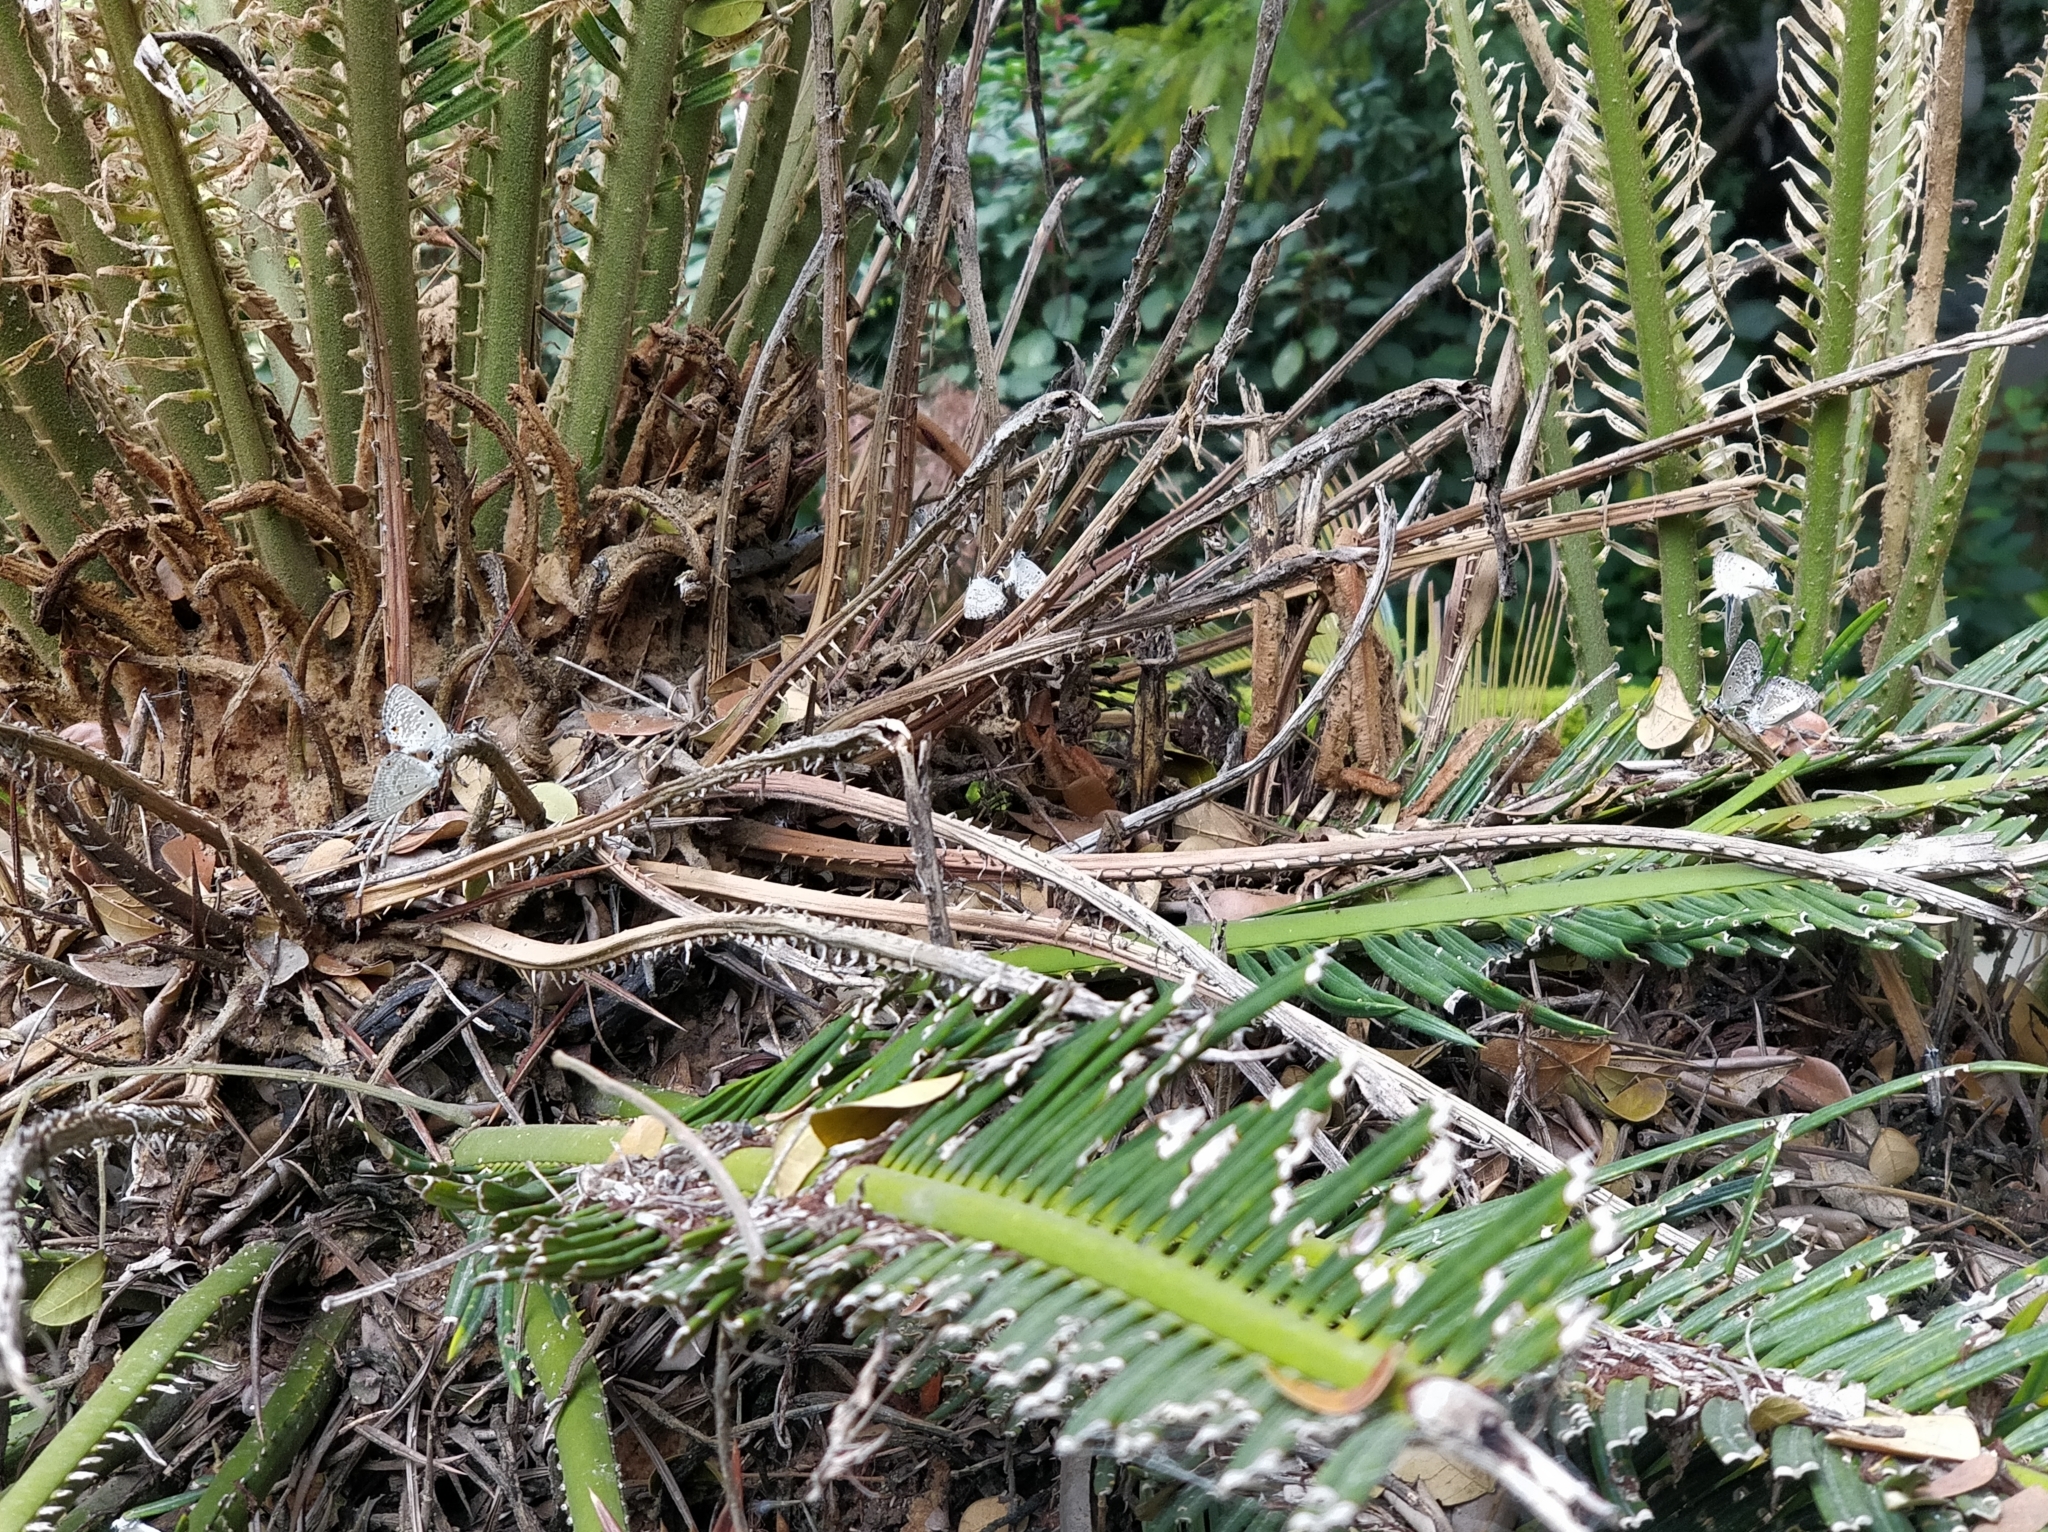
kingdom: Animalia
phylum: Arthropoda
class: Insecta
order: Lepidoptera
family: Lycaenidae
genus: Luthrodes
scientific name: Luthrodes pandava
